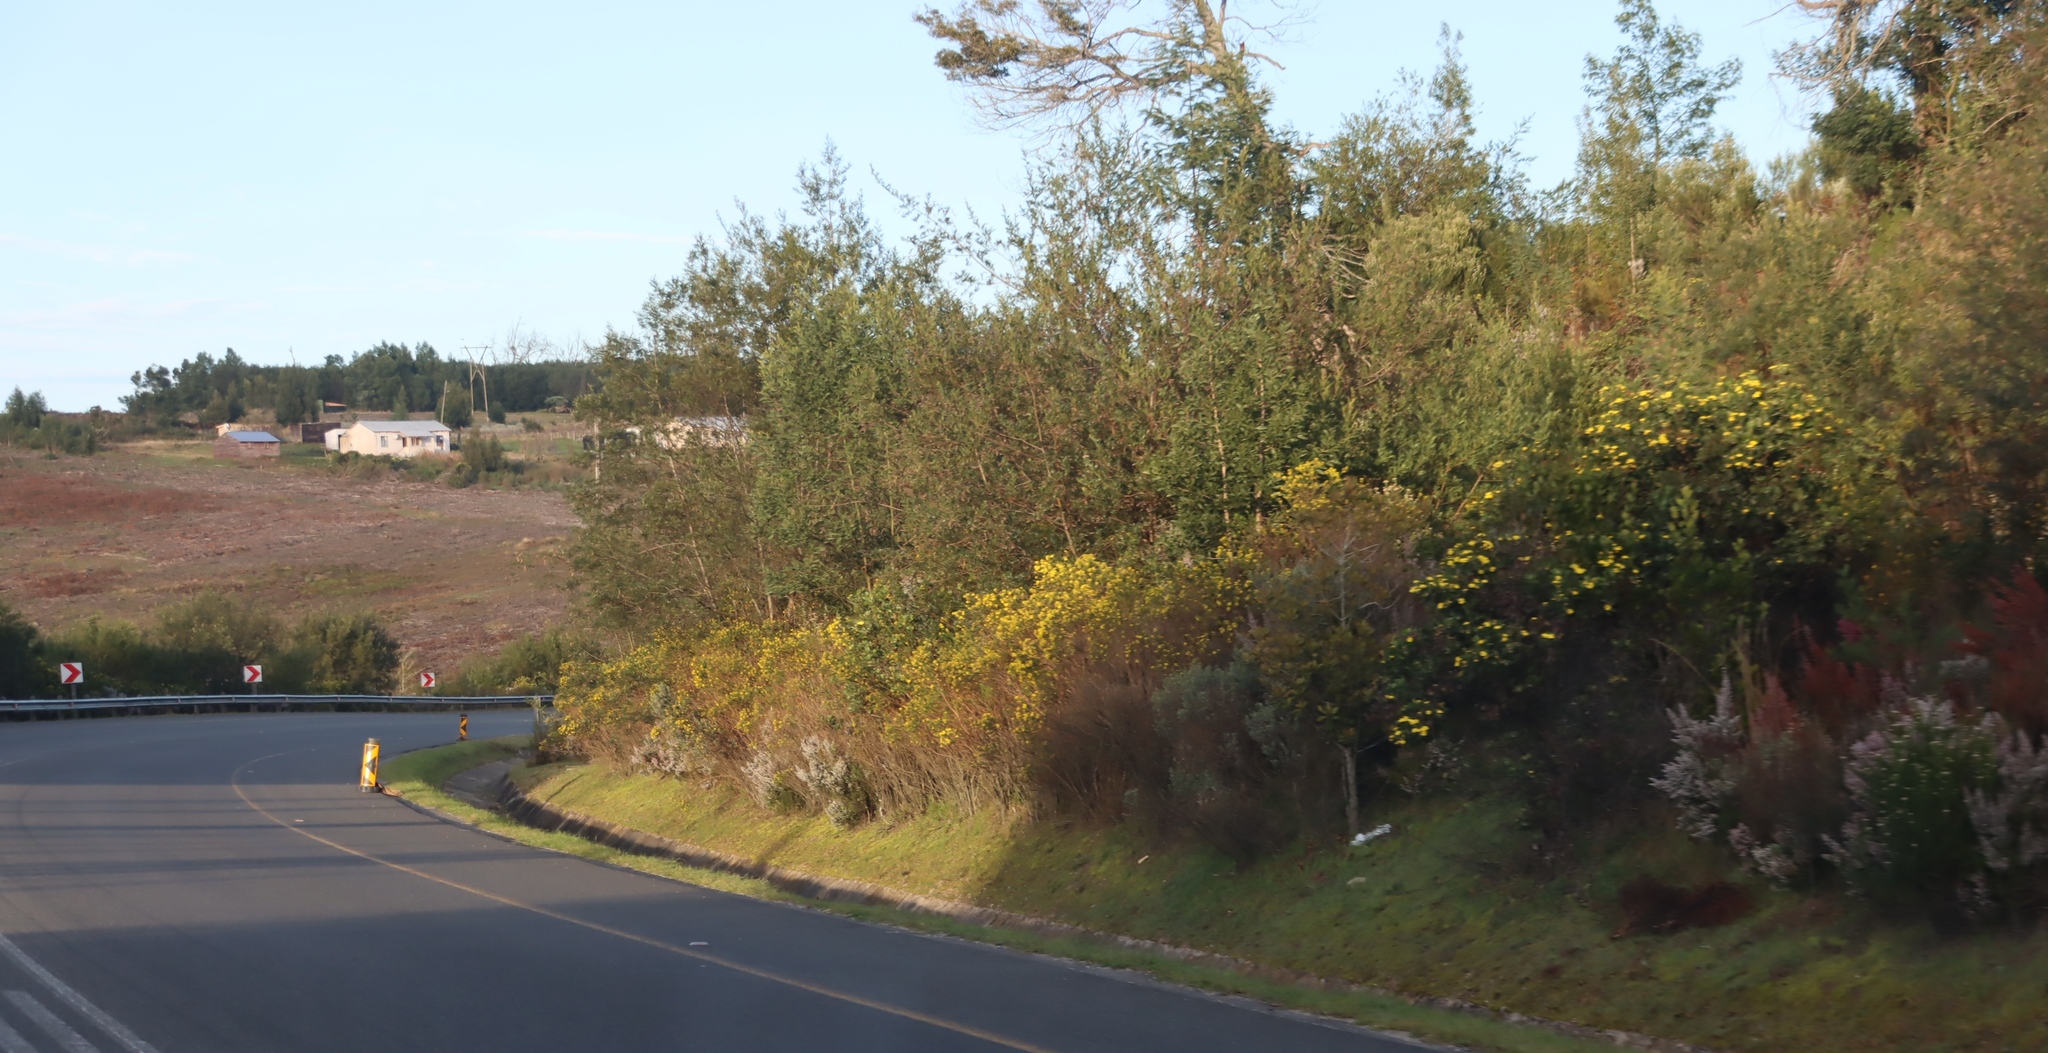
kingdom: Plantae
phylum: Tracheophyta
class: Magnoliopsida
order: Asterales
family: Asteraceae
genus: Osteospermum
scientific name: Osteospermum moniliferum
